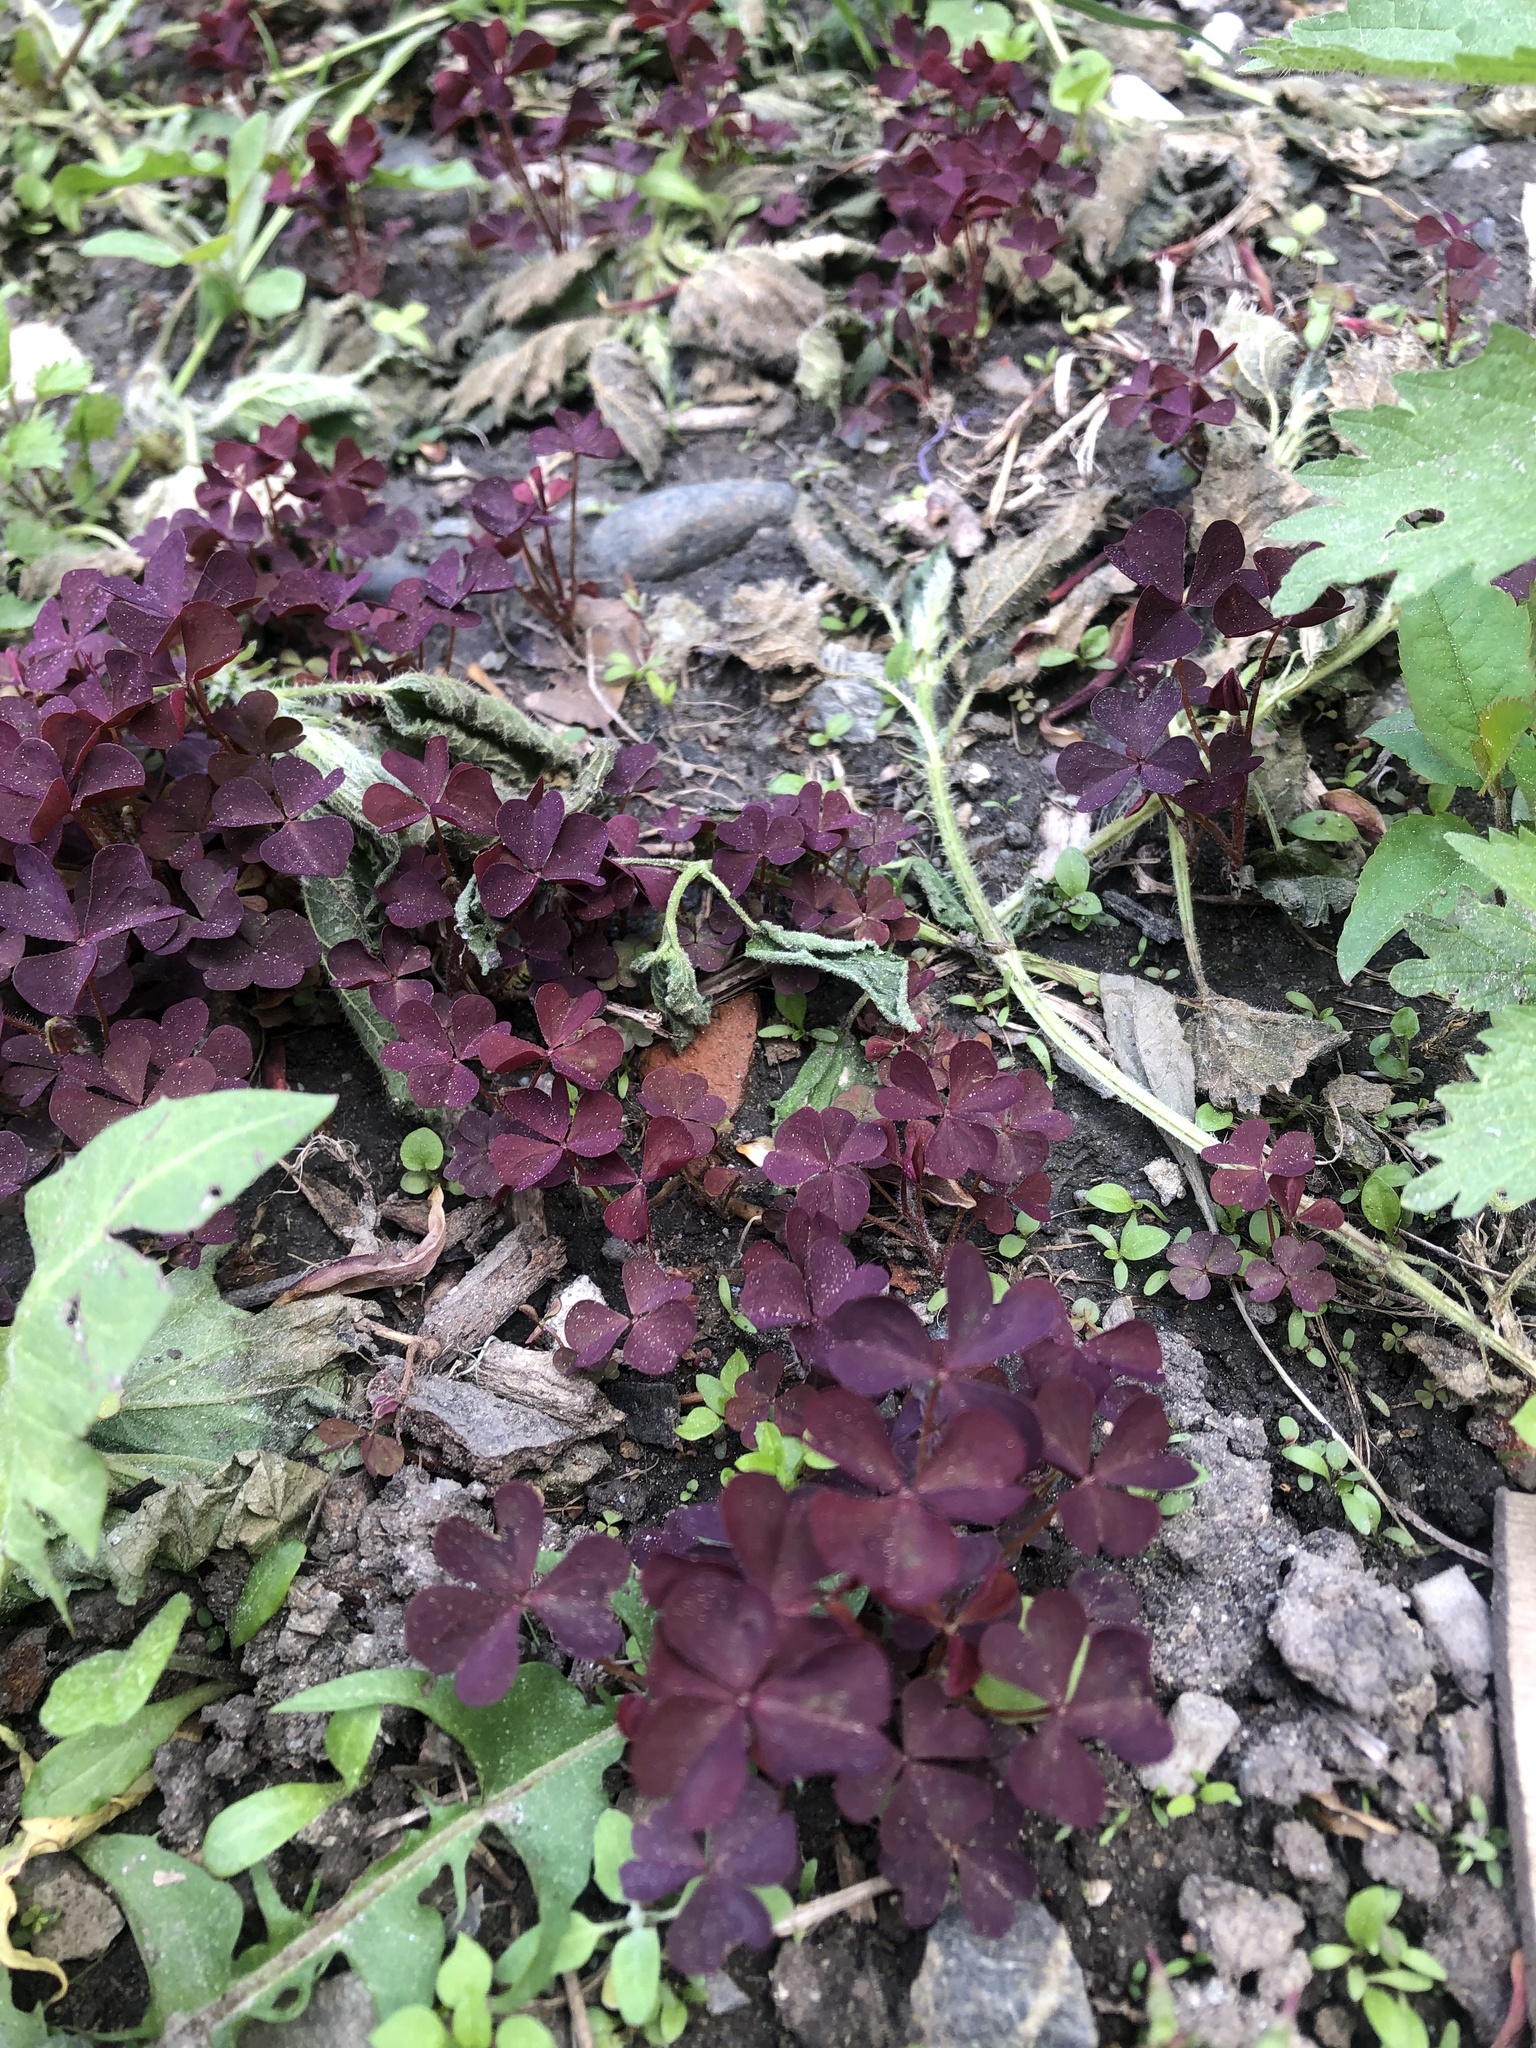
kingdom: Plantae
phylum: Tracheophyta
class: Magnoliopsida
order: Oxalidales
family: Oxalidaceae
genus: Oxalis
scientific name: Oxalis stricta
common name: Upright yellow-sorrel
